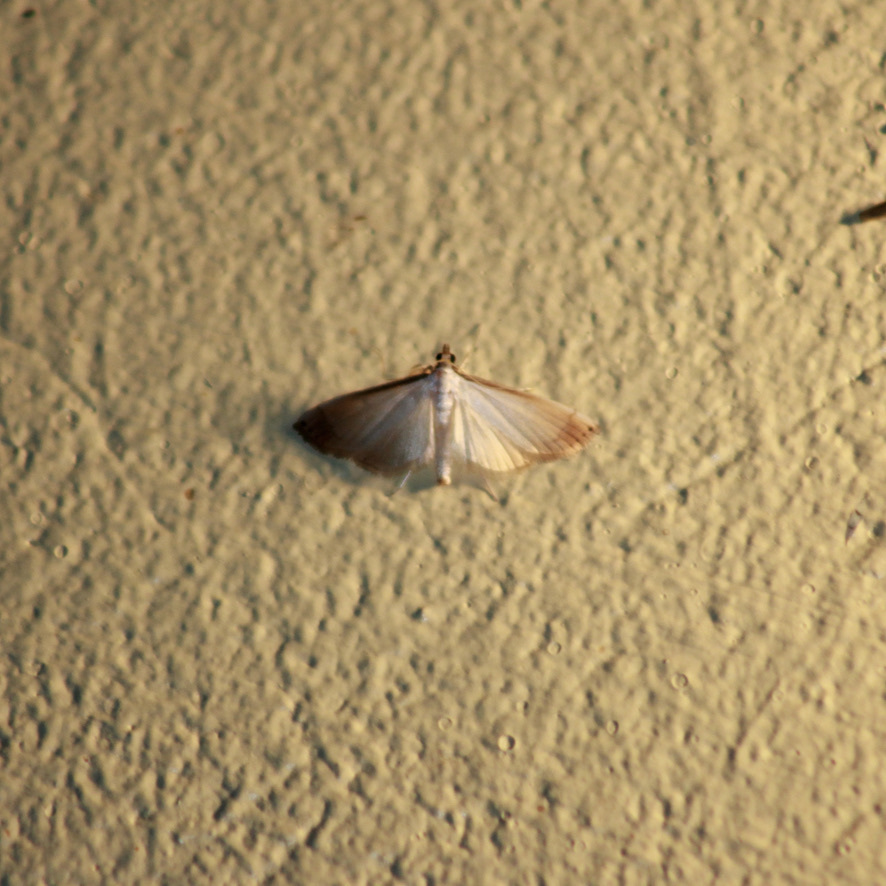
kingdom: Animalia
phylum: Arthropoda
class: Insecta
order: Lepidoptera
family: Crambidae
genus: Stenia
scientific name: Stenia saurialis
